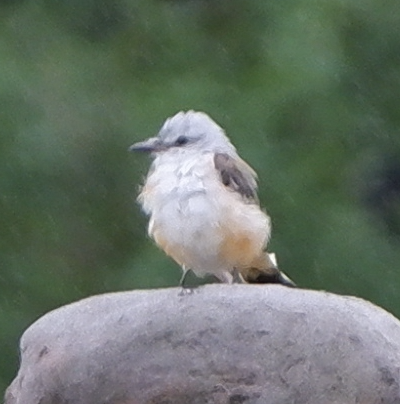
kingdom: Animalia
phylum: Chordata
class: Aves
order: Passeriformes
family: Tyrannidae
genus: Tyrannus
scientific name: Tyrannus forficatus
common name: Scissor-tailed flycatcher
